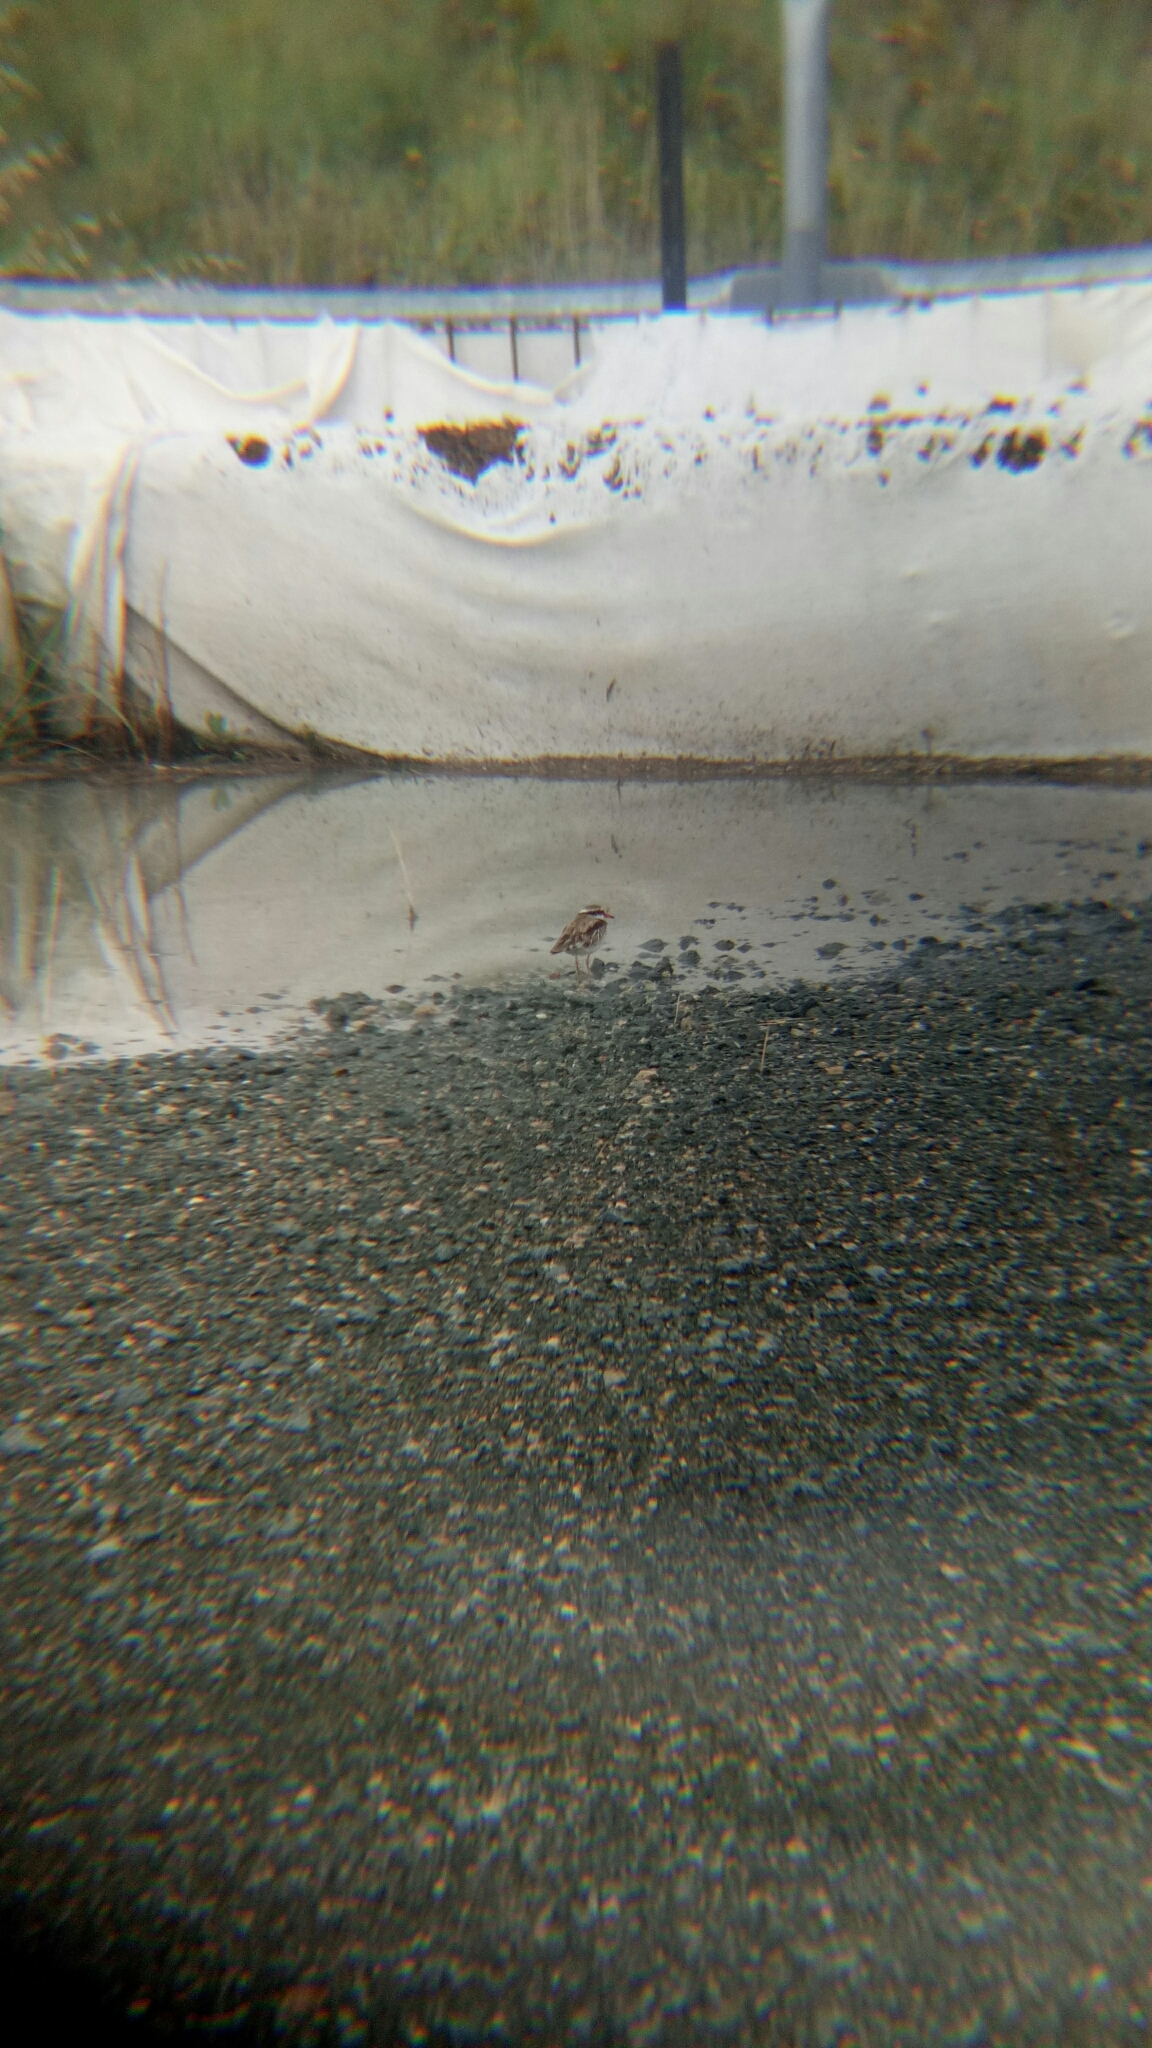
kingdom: Animalia
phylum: Chordata
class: Aves
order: Charadriiformes
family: Charadriidae
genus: Elseyornis
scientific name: Elseyornis melanops
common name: Black-fronted dotterel
